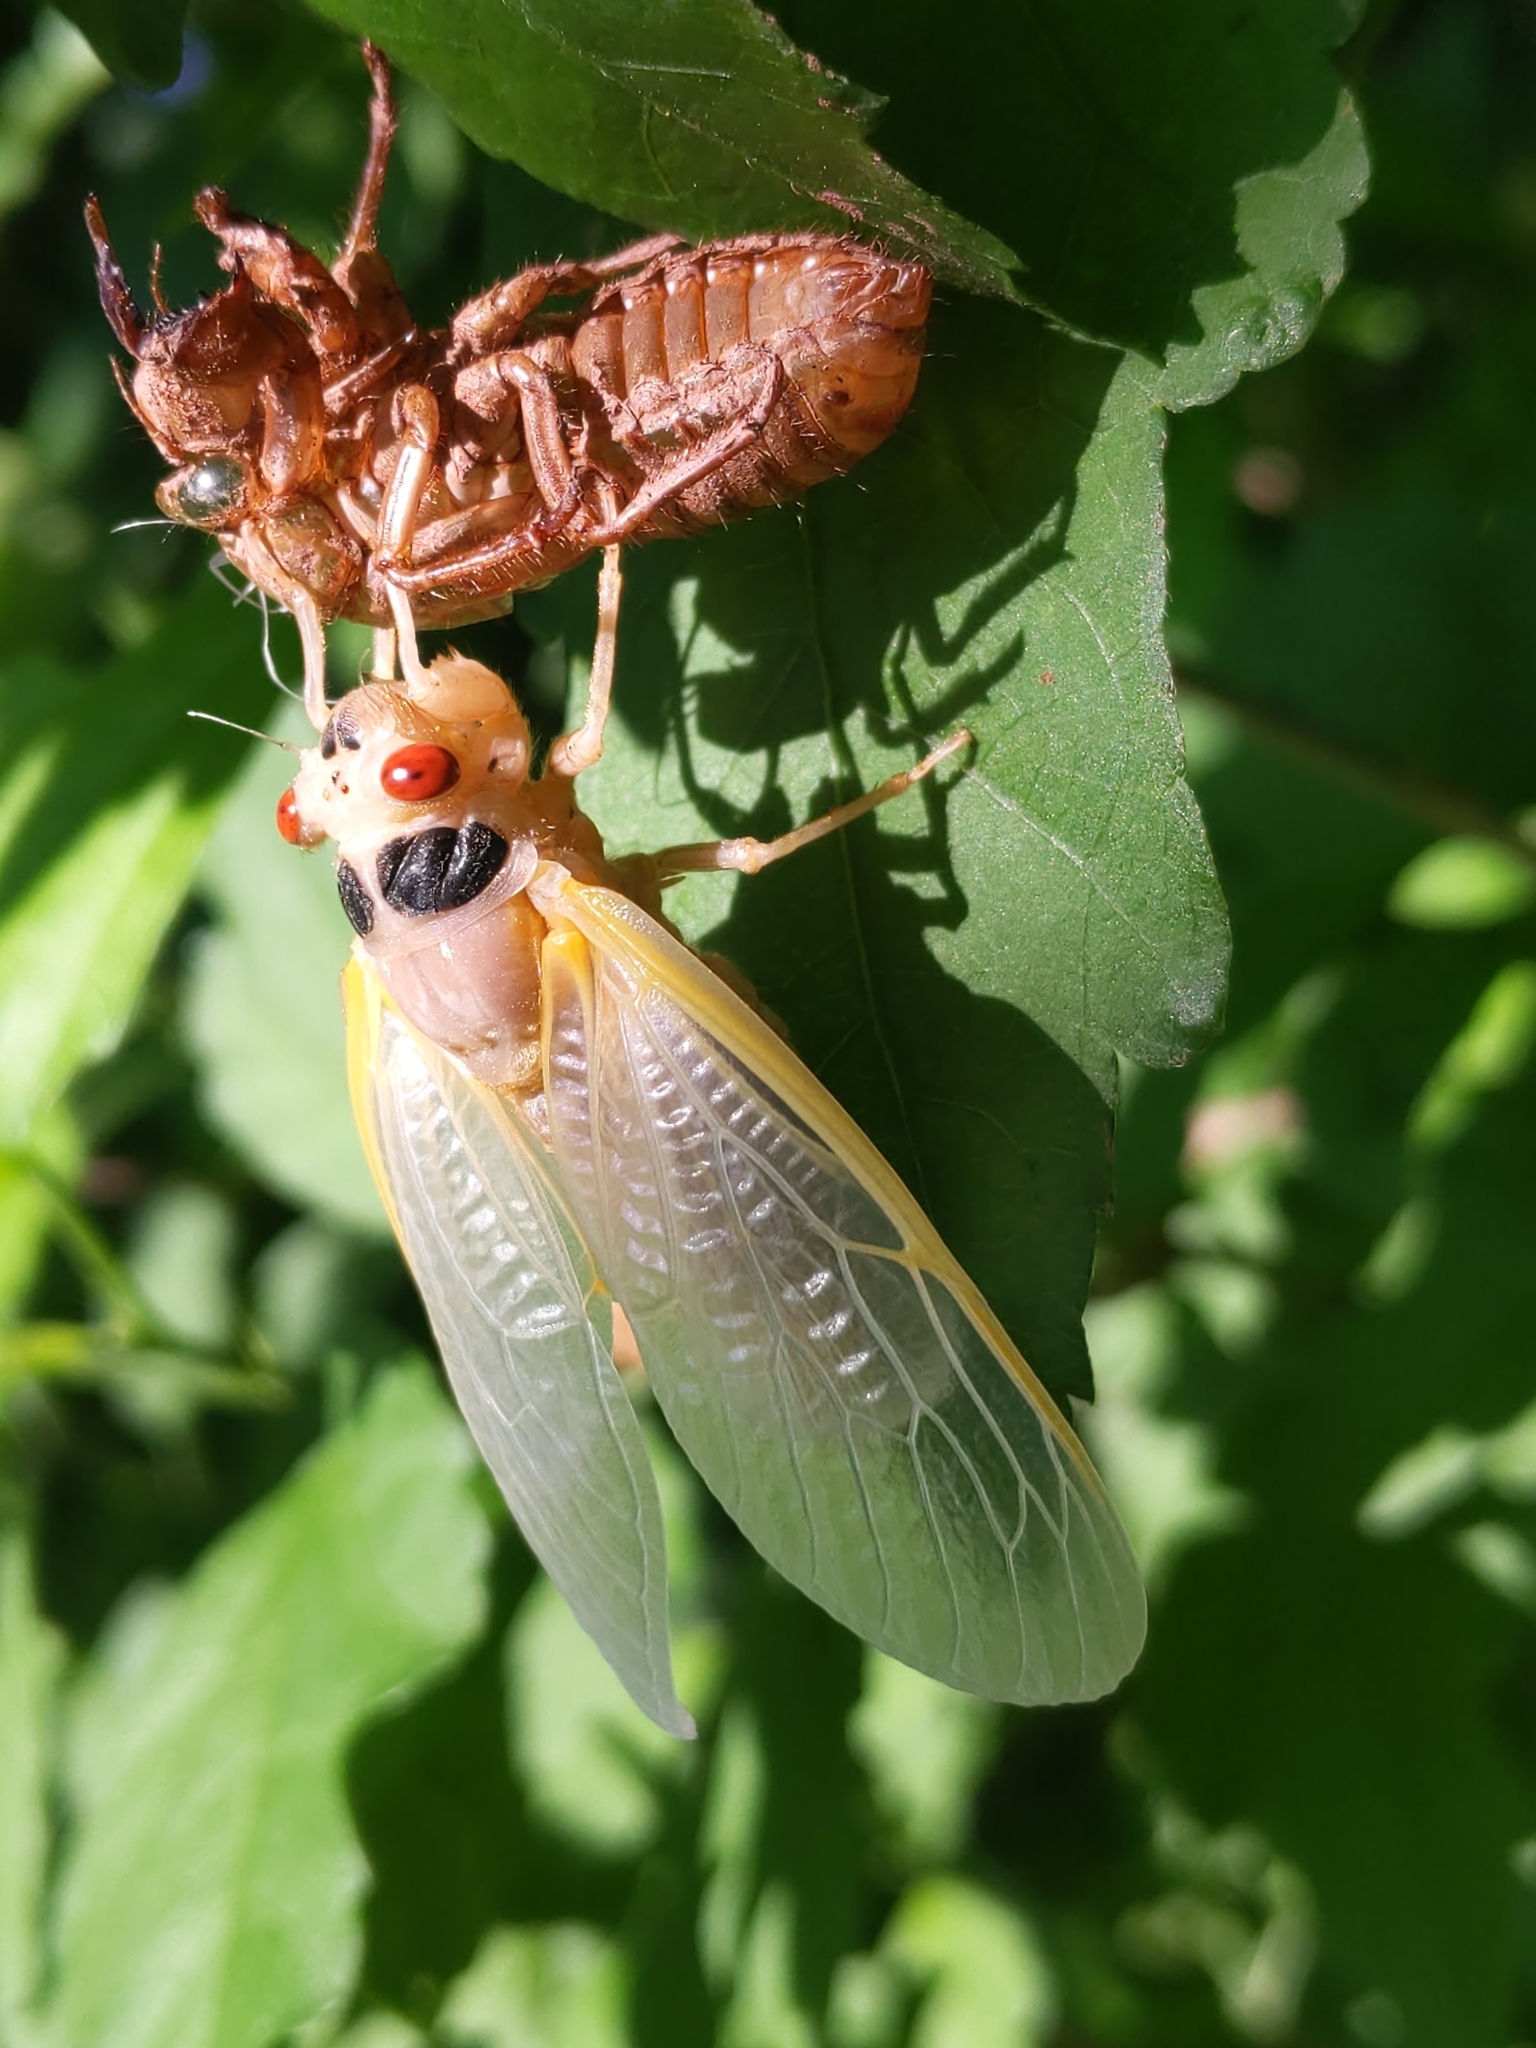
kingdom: Animalia
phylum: Arthropoda
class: Insecta
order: Hemiptera
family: Cicadidae
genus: Magicicada
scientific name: Magicicada
